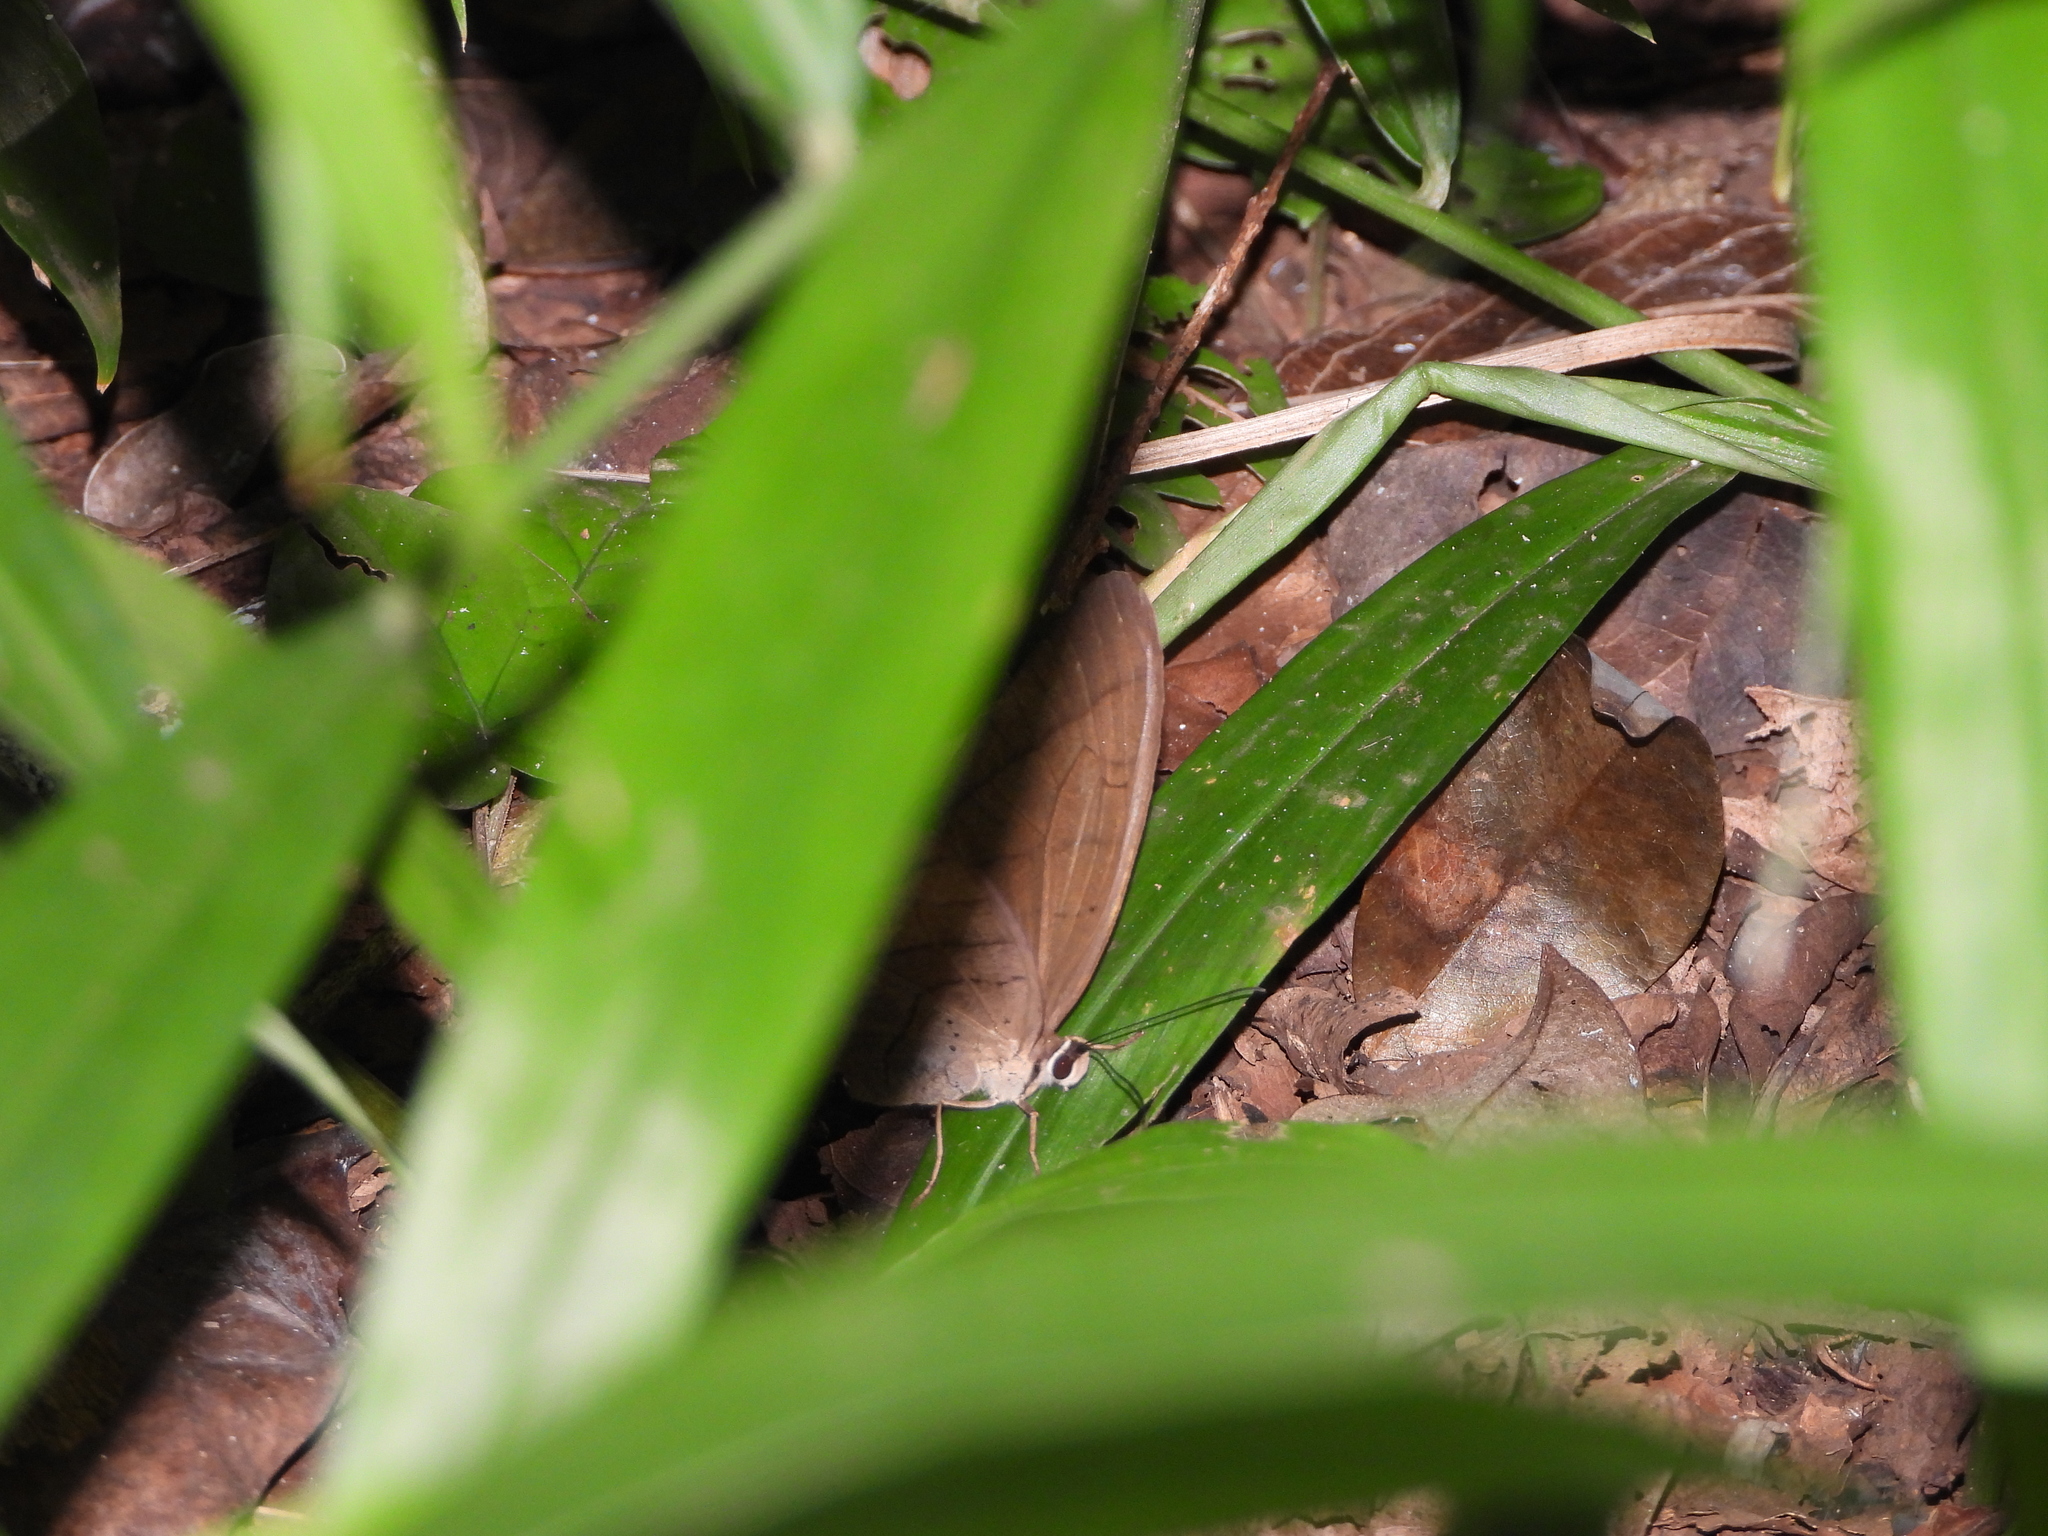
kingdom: Animalia
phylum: Arthropoda
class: Insecta
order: Lepidoptera
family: Nymphalidae
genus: Pierella
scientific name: Pierella luna
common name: Moon satyr
